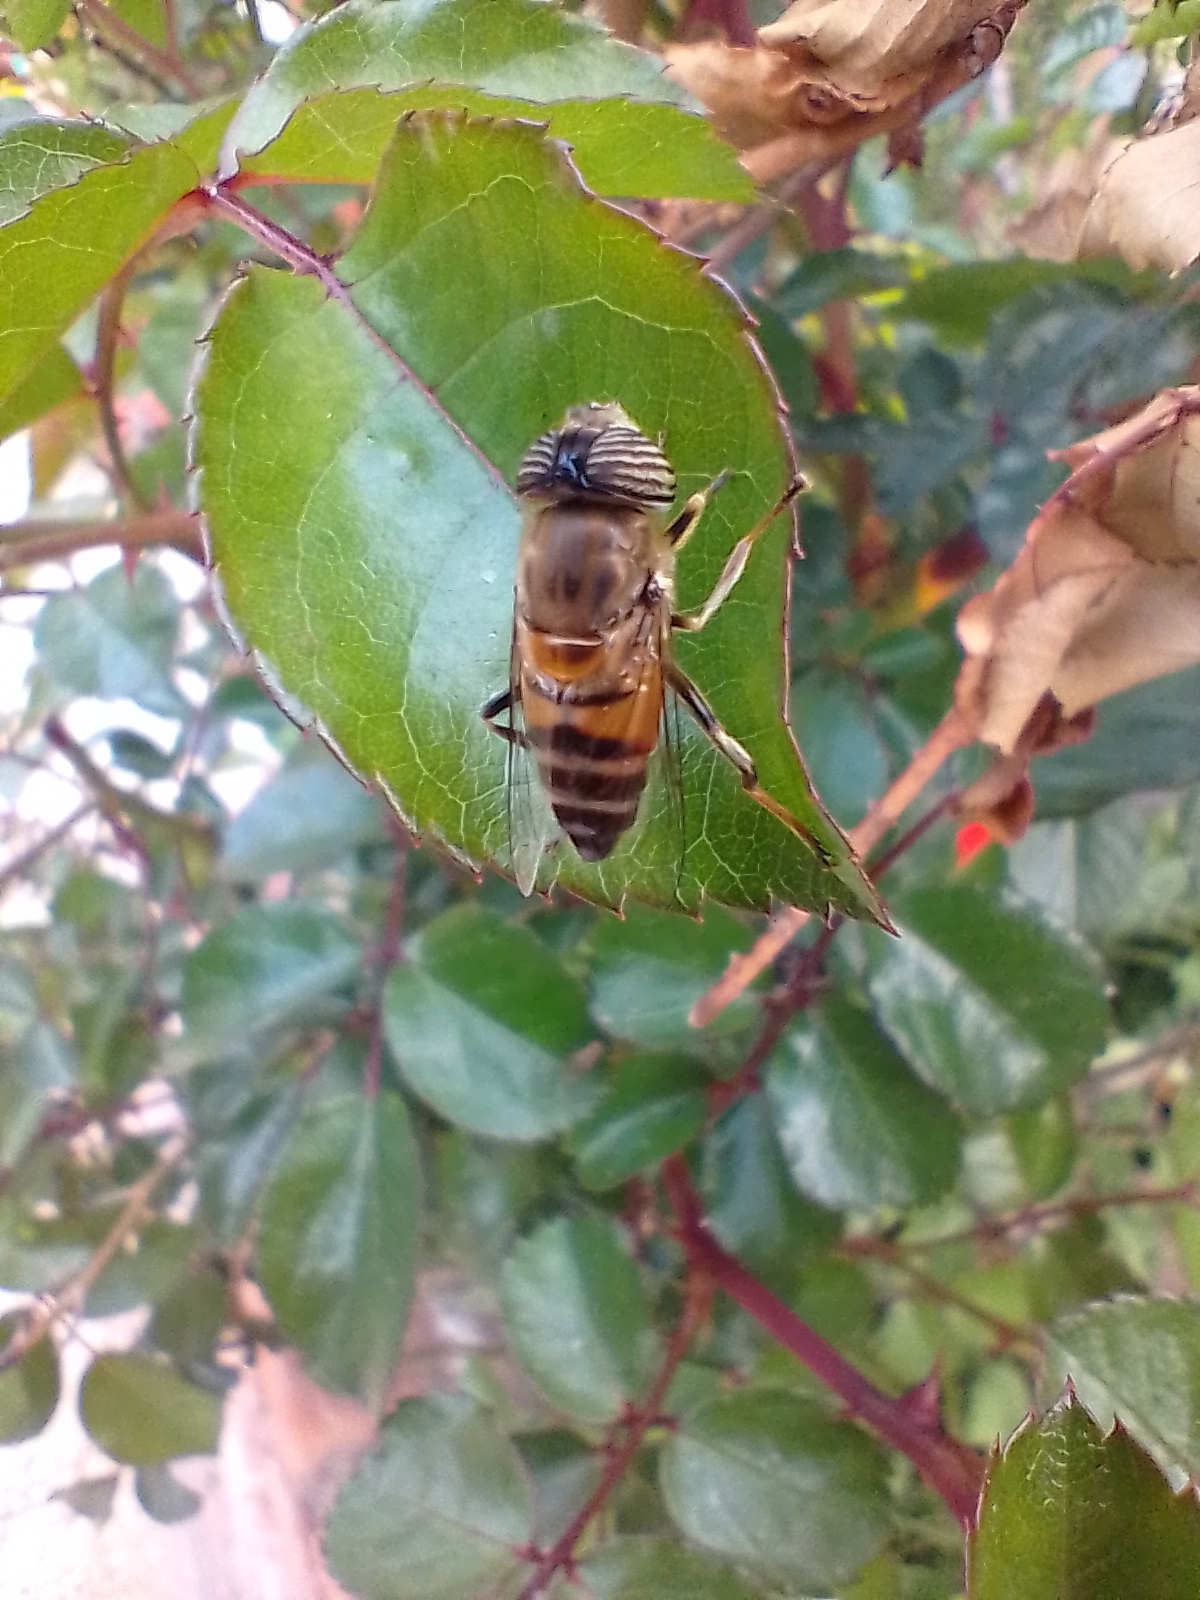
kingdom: Animalia
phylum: Arthropoda
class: Insecta
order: Diptera
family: Syrphidae
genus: Eristalinus
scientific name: Eristalinus taeniops
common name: Syrphid fly
